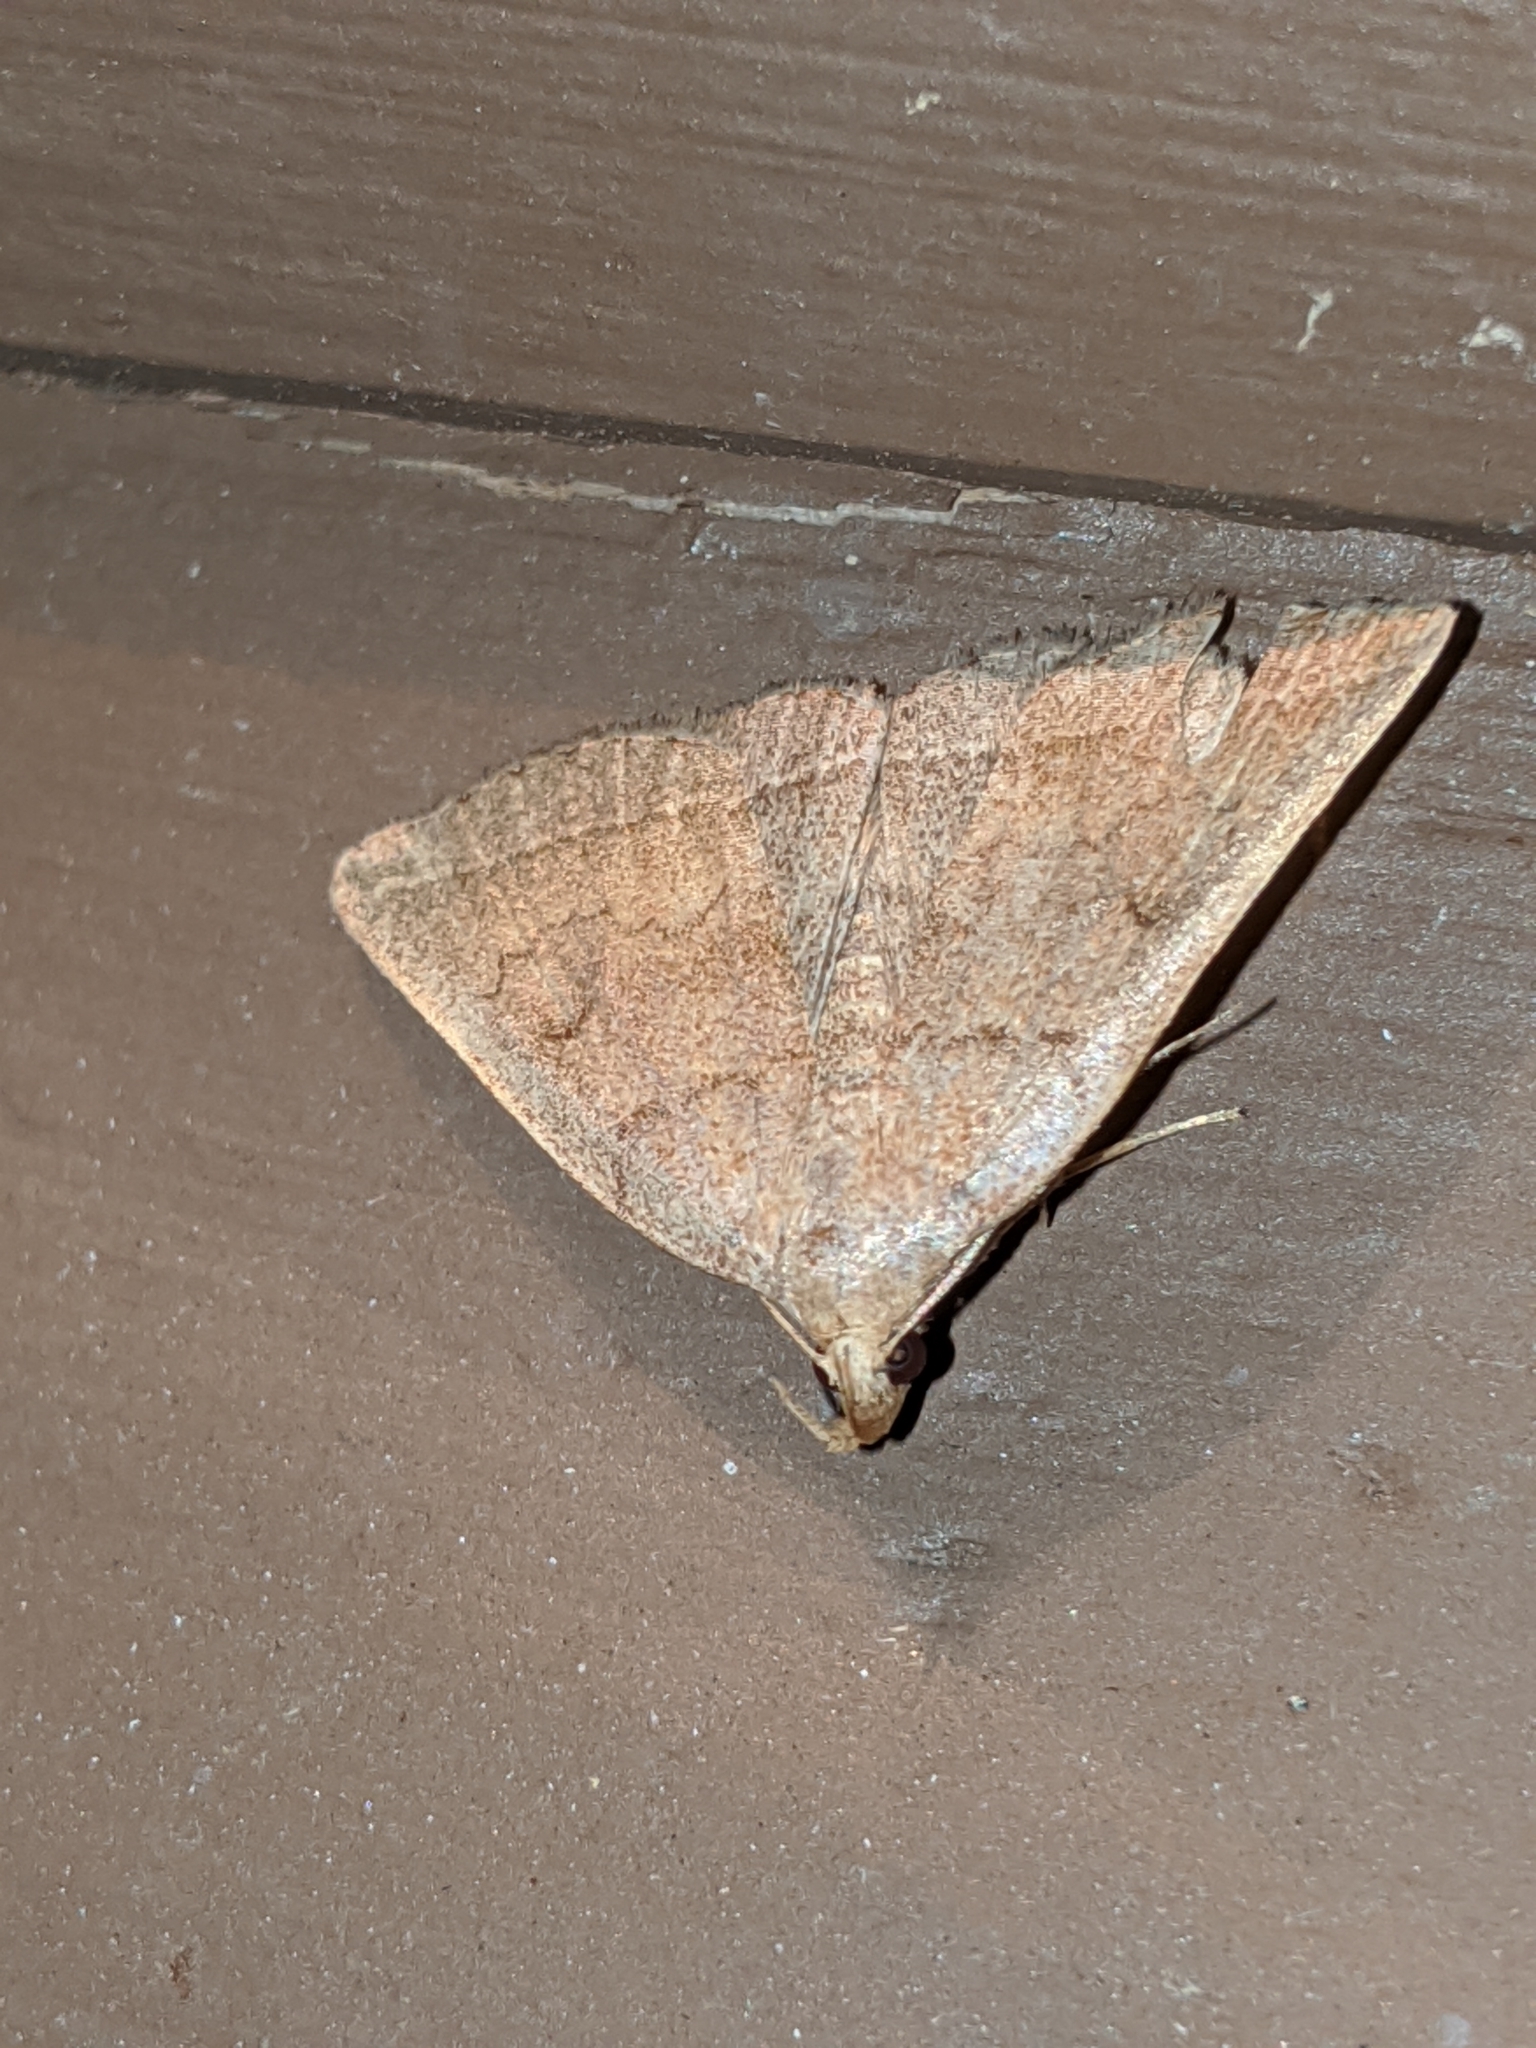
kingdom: Animalia
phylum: Arthropoda
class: Insecta
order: Lepidoptera
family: Erebidae
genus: Zanclognatha
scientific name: Zanclognatha jacchusalis
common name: Yellowish zanclognatha
